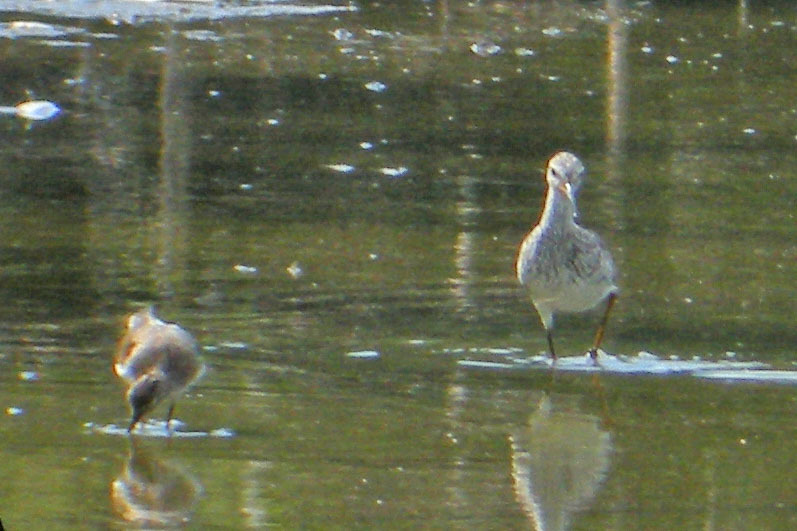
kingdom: Animalia
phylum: Chordata
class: Aves
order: Charadriiformes
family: Scolopacidae
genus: Tringa
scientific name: Tringa flavipes
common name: Lesser yellowlegs
